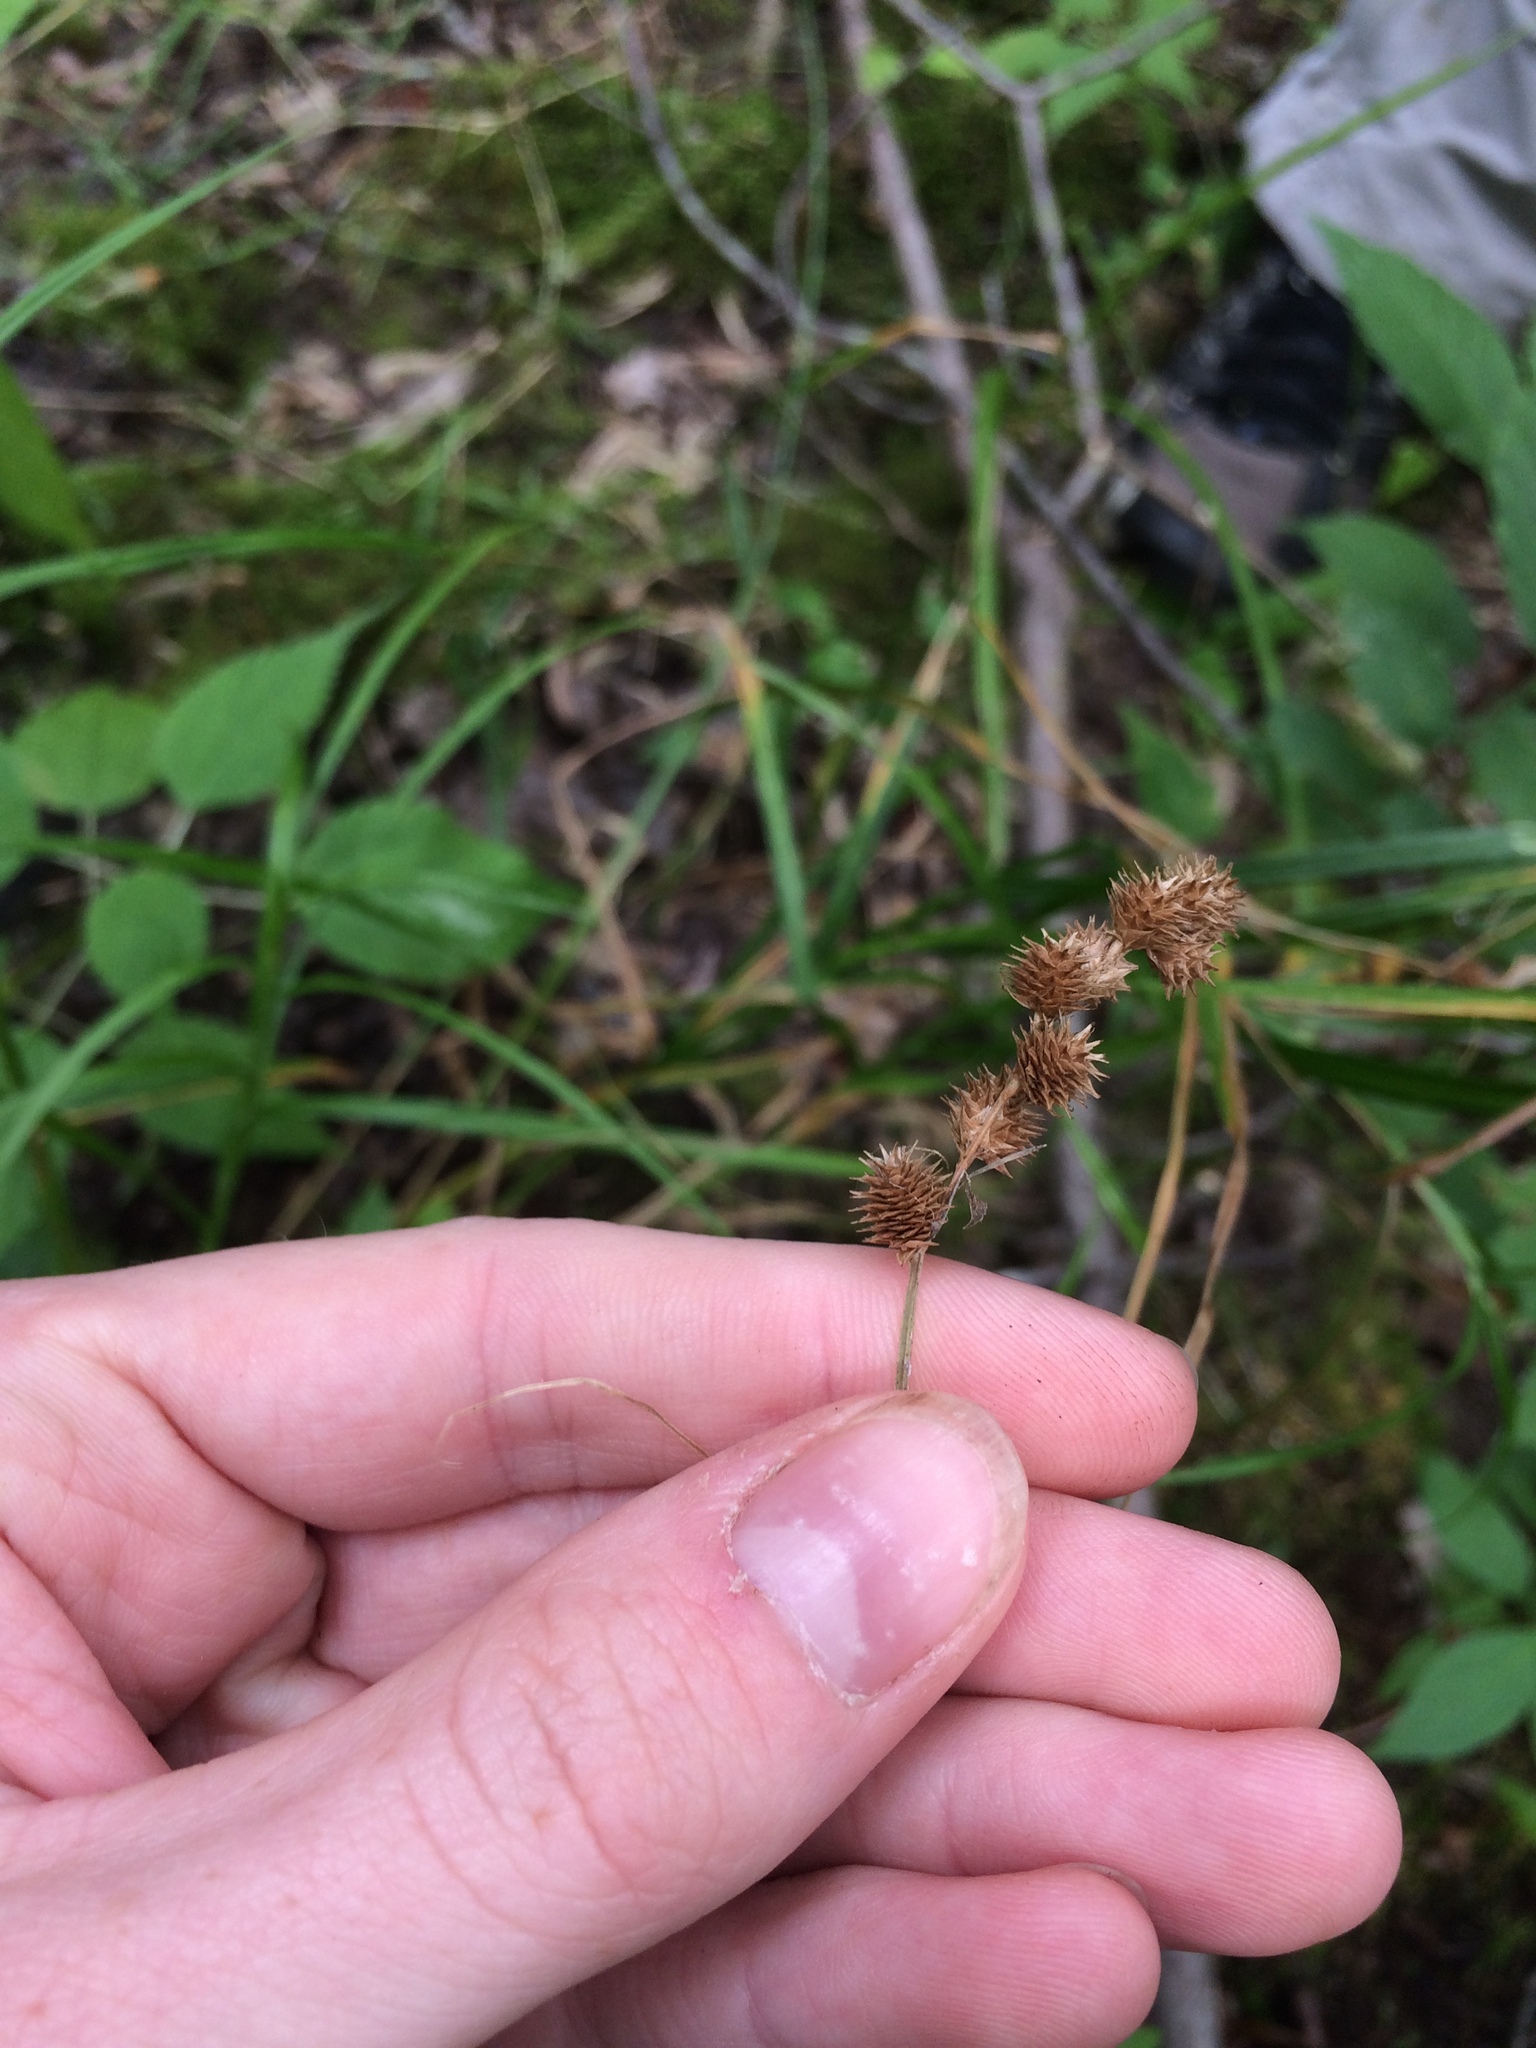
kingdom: Plantae
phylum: Tracheophyta
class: Liliopsida
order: Poales
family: Cyperaceae
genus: Carex
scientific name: Carex cristatella
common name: Crested oval sedge
